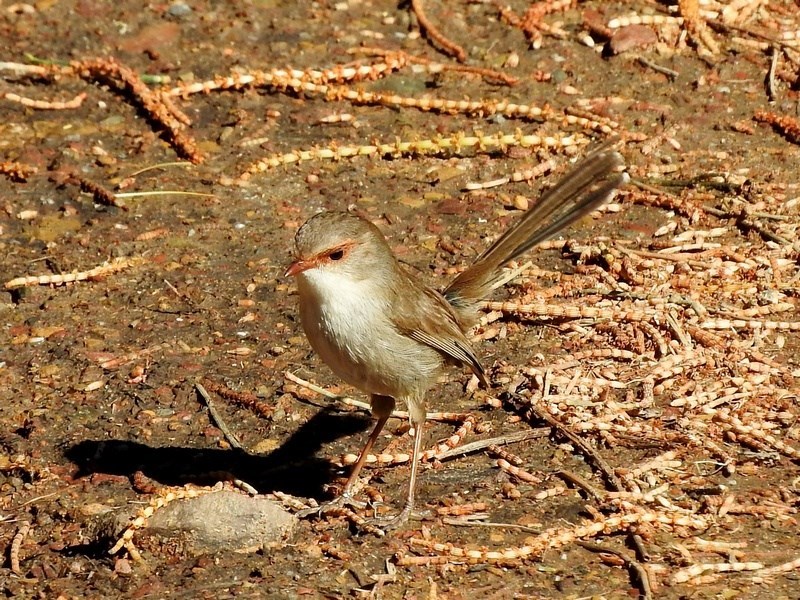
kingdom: Animalia
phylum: Chordata
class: Aves
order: Passeriformes
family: Maluridae
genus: Malurus
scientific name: Malurus cyaneus
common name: Superb fairywren
